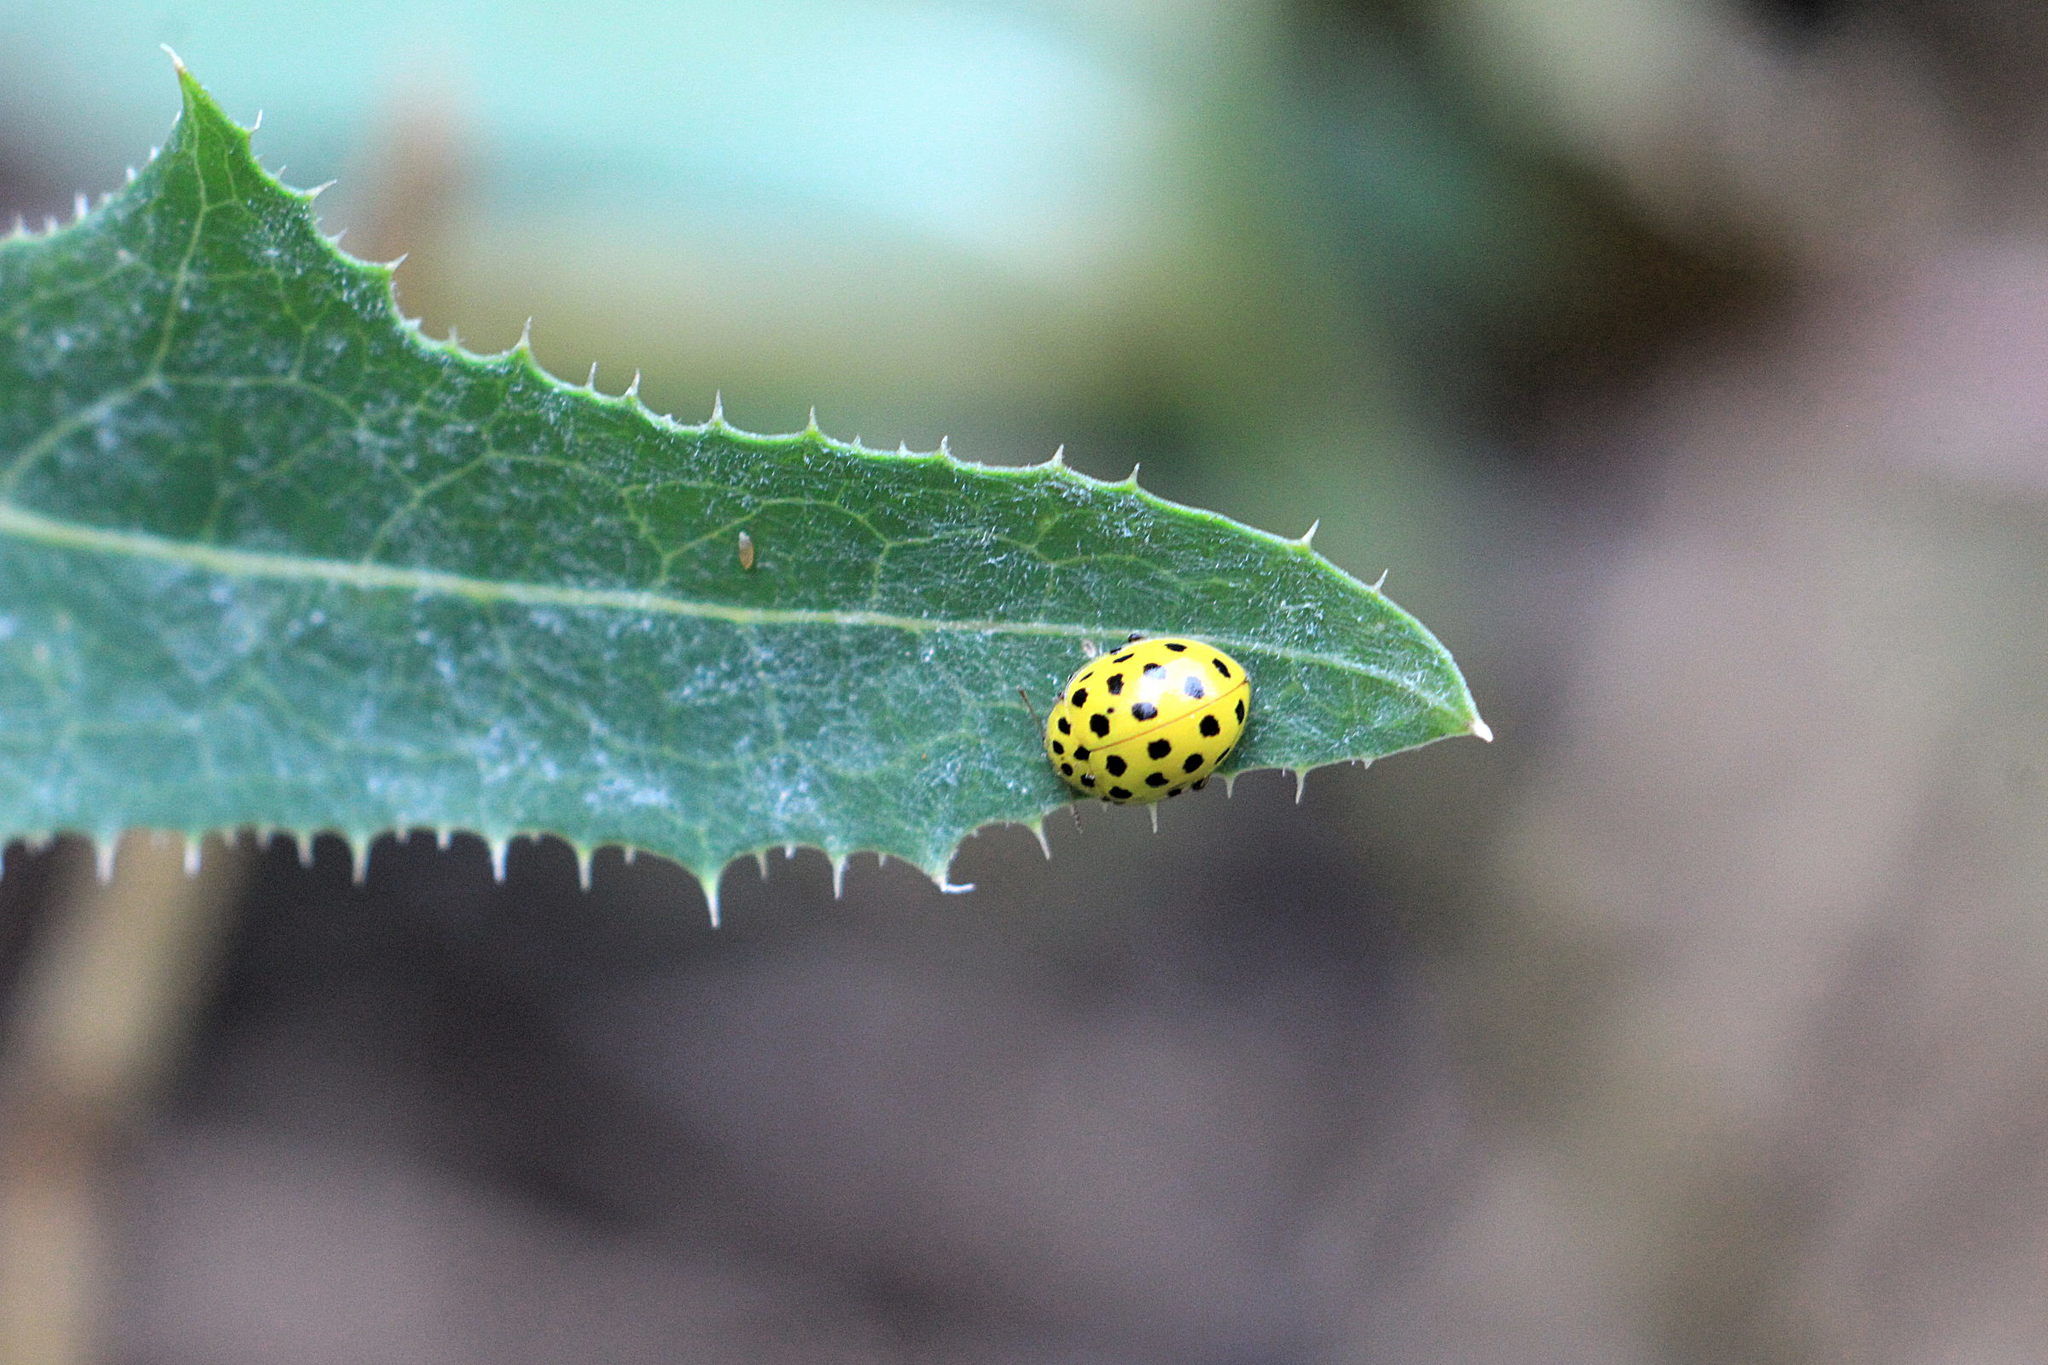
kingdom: Animalia
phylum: Arthropoda
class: Insecta
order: Coleoptera
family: Coccinellidae
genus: Psyllobora
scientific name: Psyllobora vigintiduopunctata
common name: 22-spot ladybird
